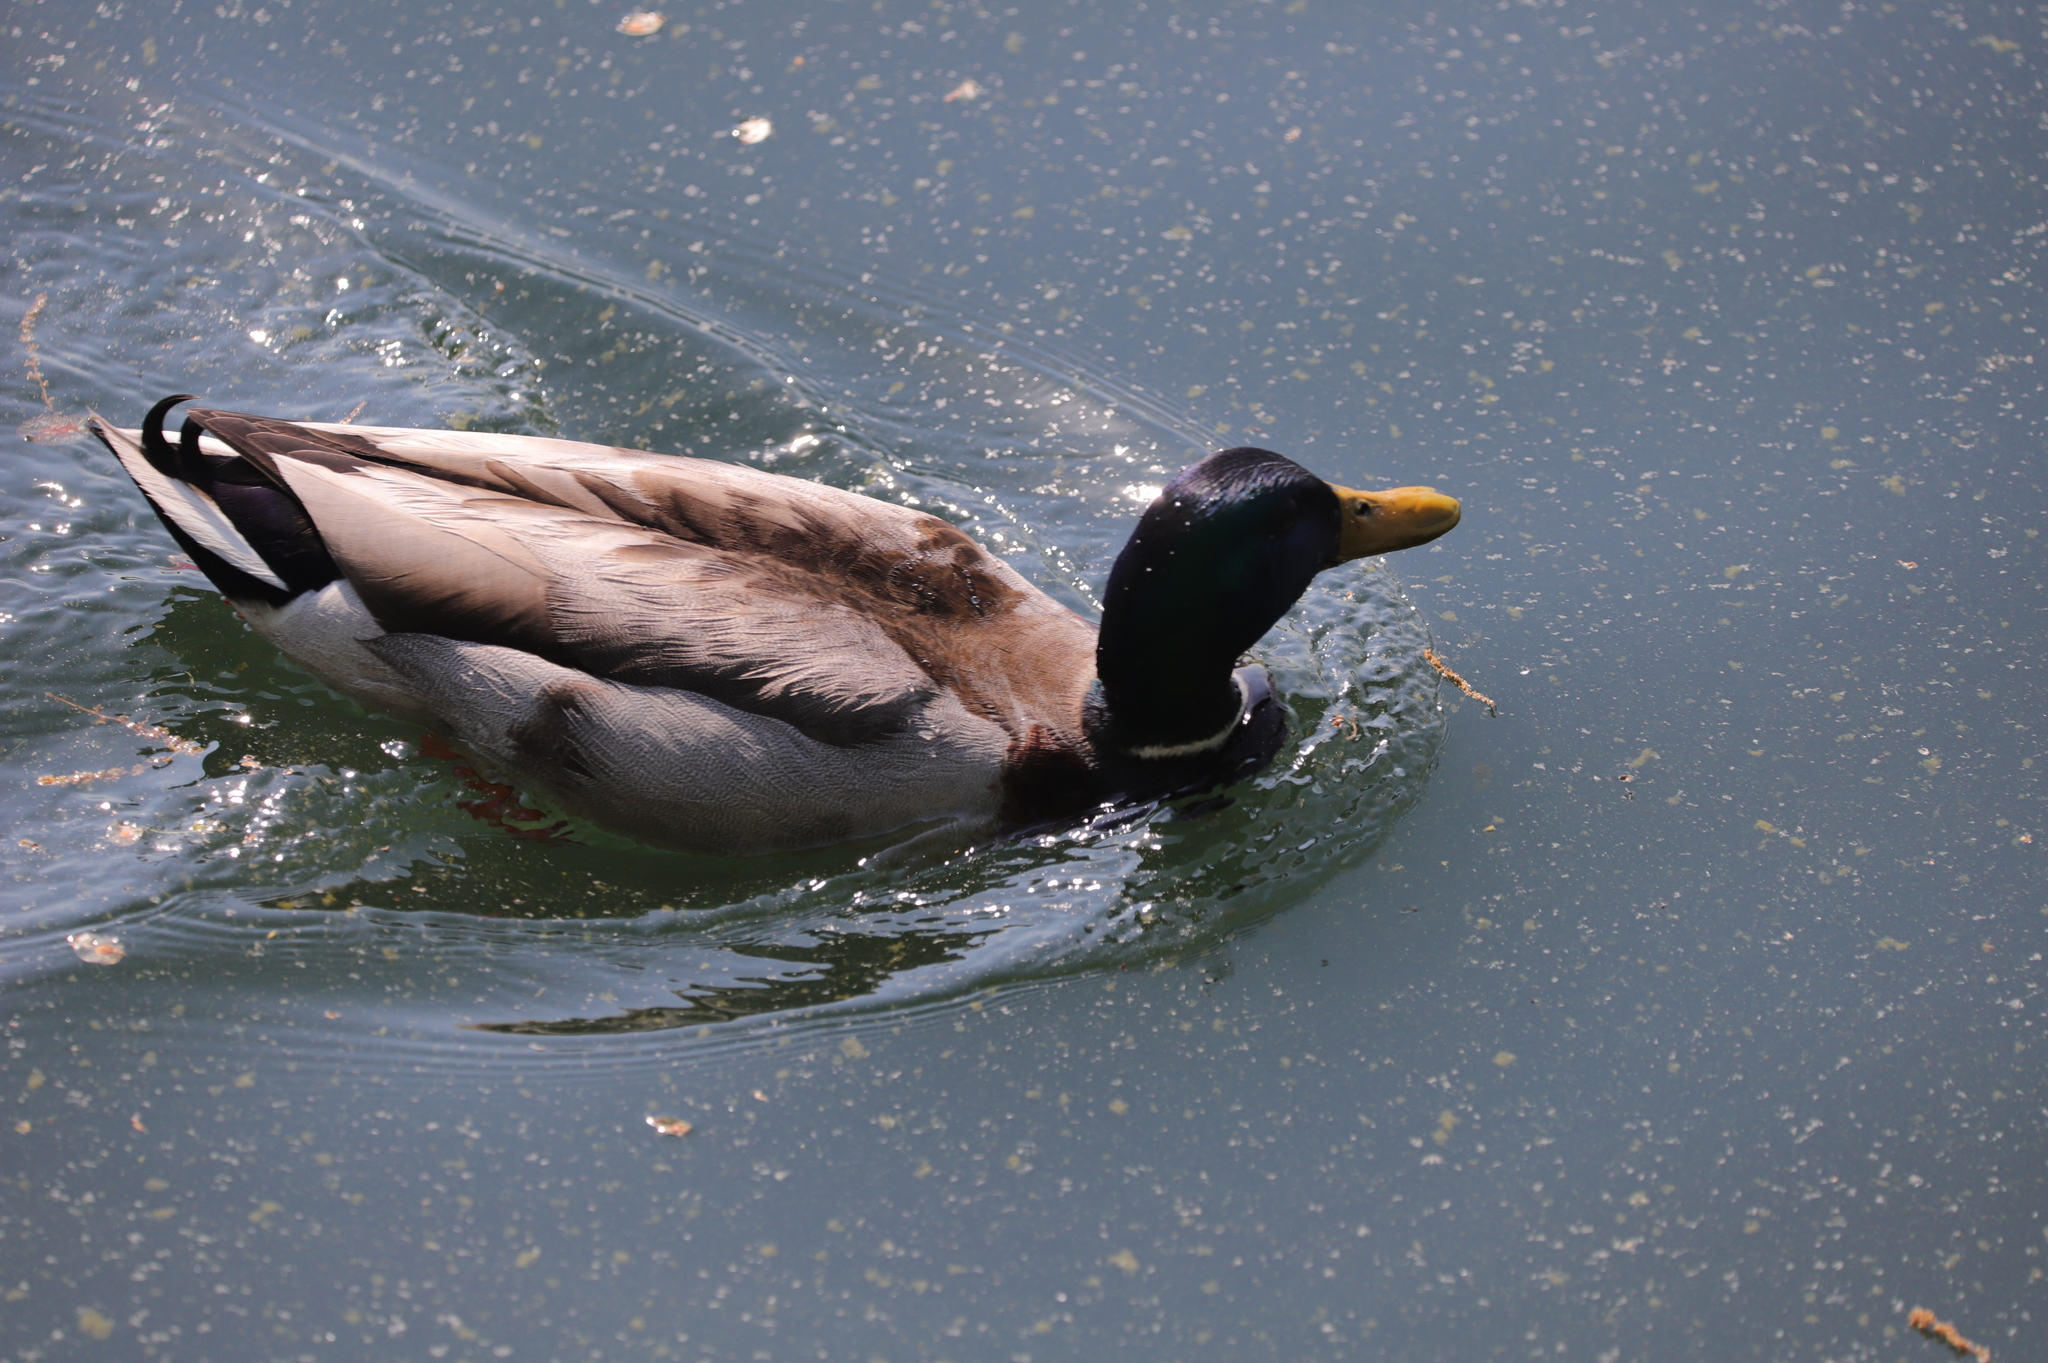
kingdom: Animalia
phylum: Chordata
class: Aves
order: Anseriformes
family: Anatidae
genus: Anas
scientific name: Anas platyrhynchos
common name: Mallard
